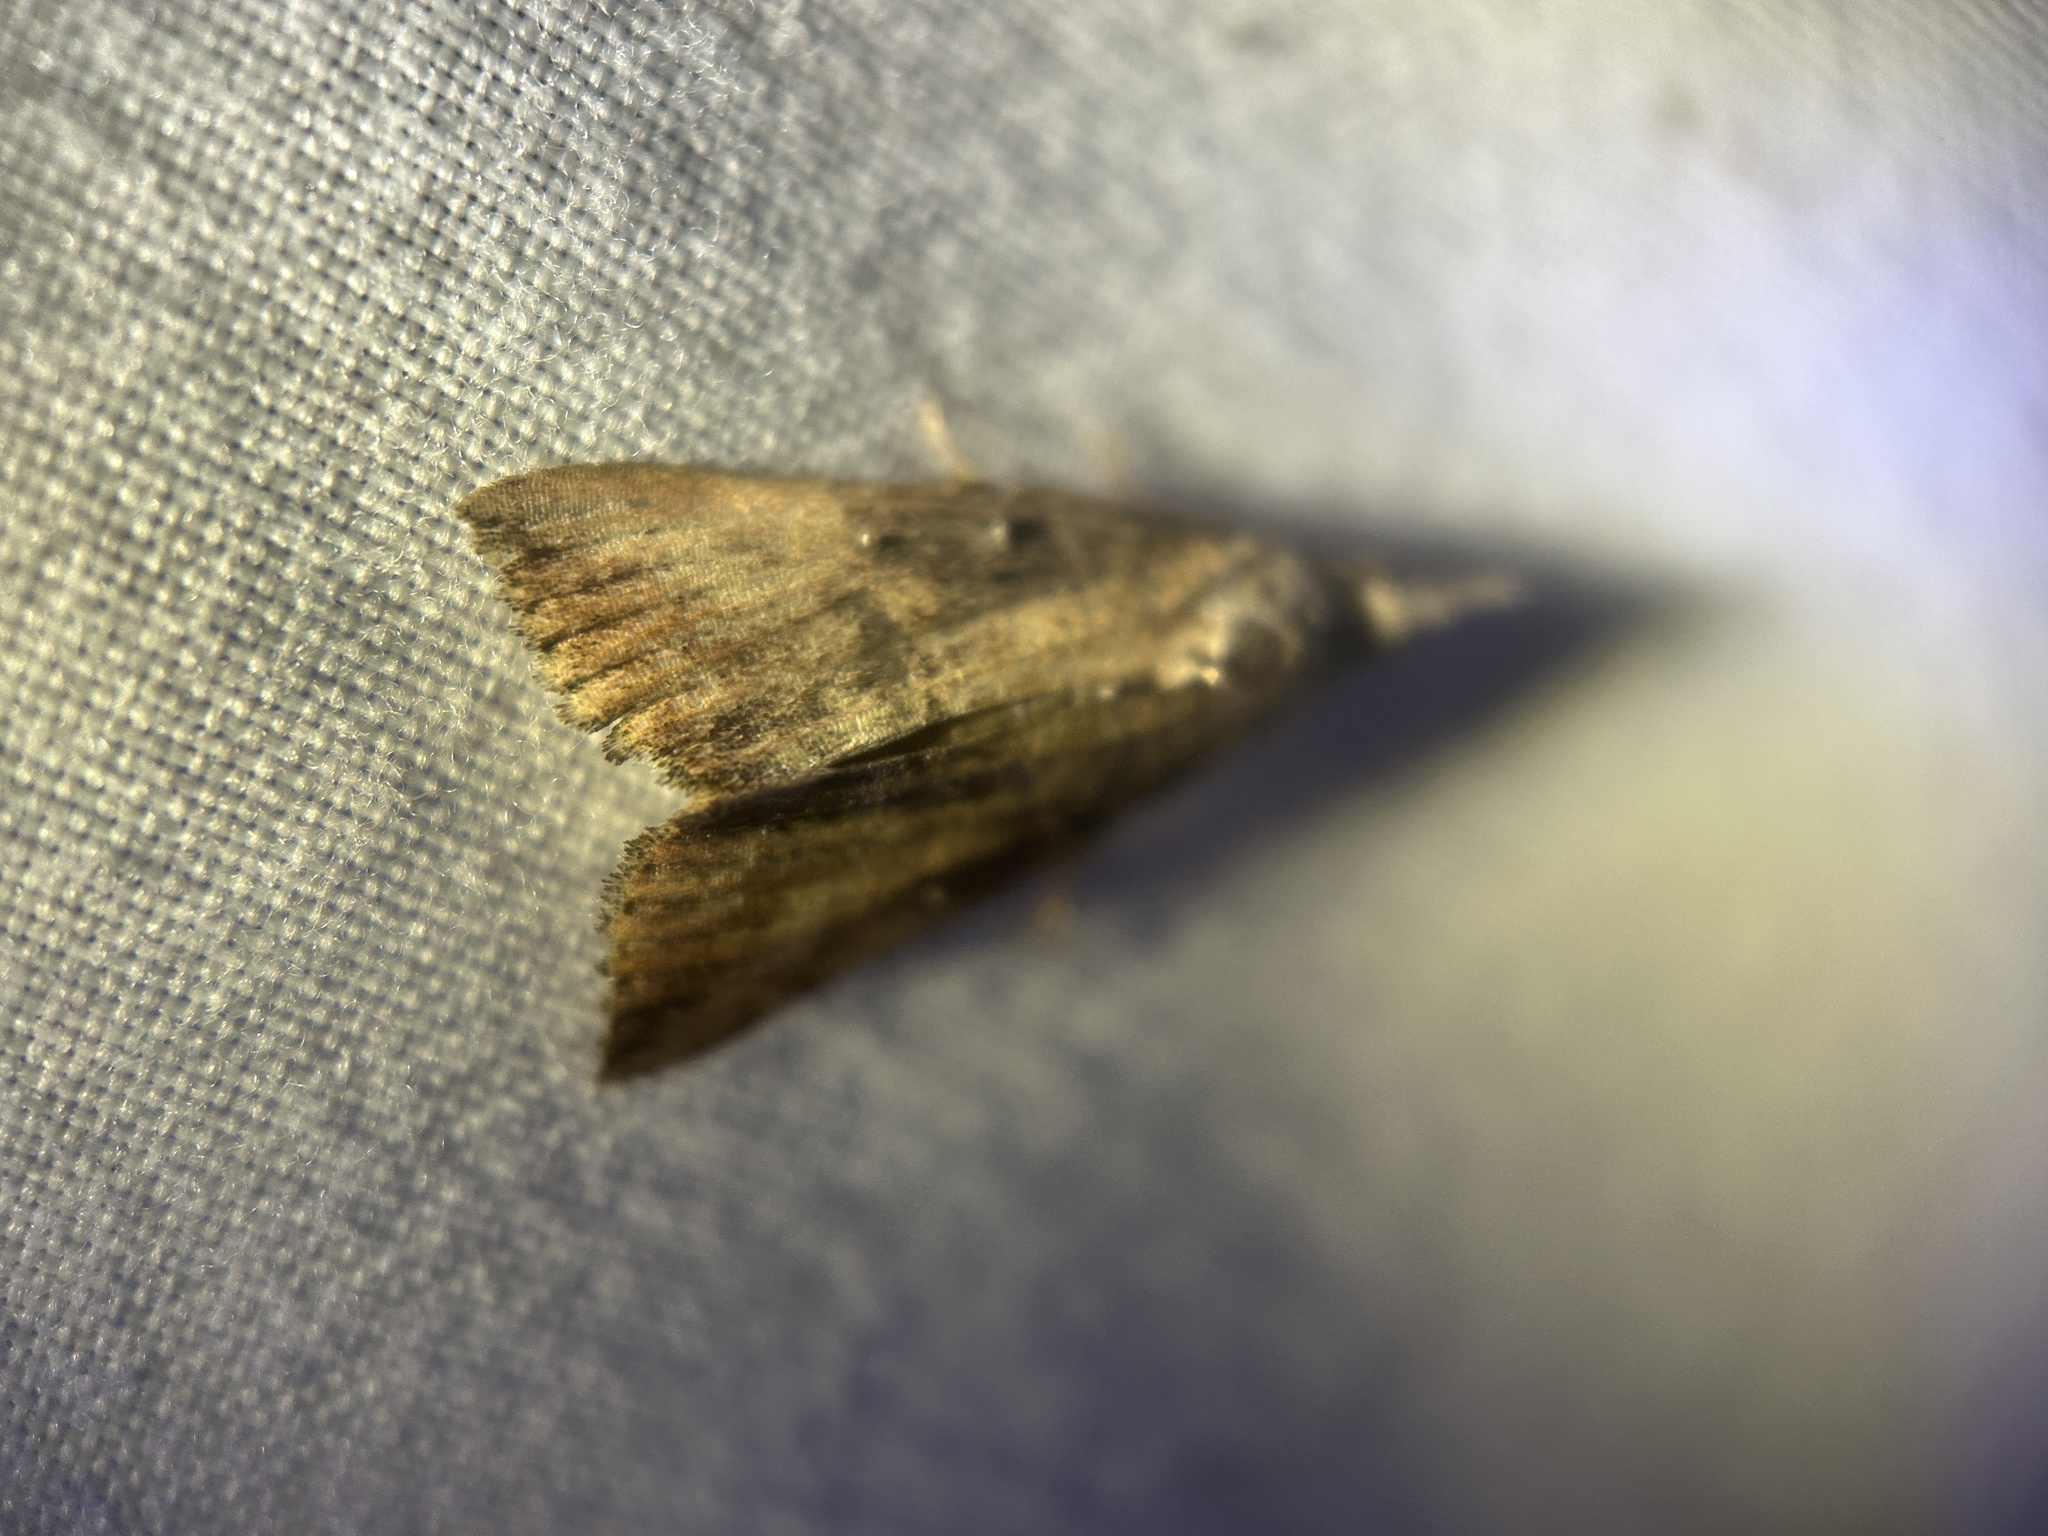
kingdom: Animalia
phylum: Arthropoda
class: Insecta
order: Lepidoptera
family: Erebidae
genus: Hypena
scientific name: Hypena scabra
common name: Green cloverworm
